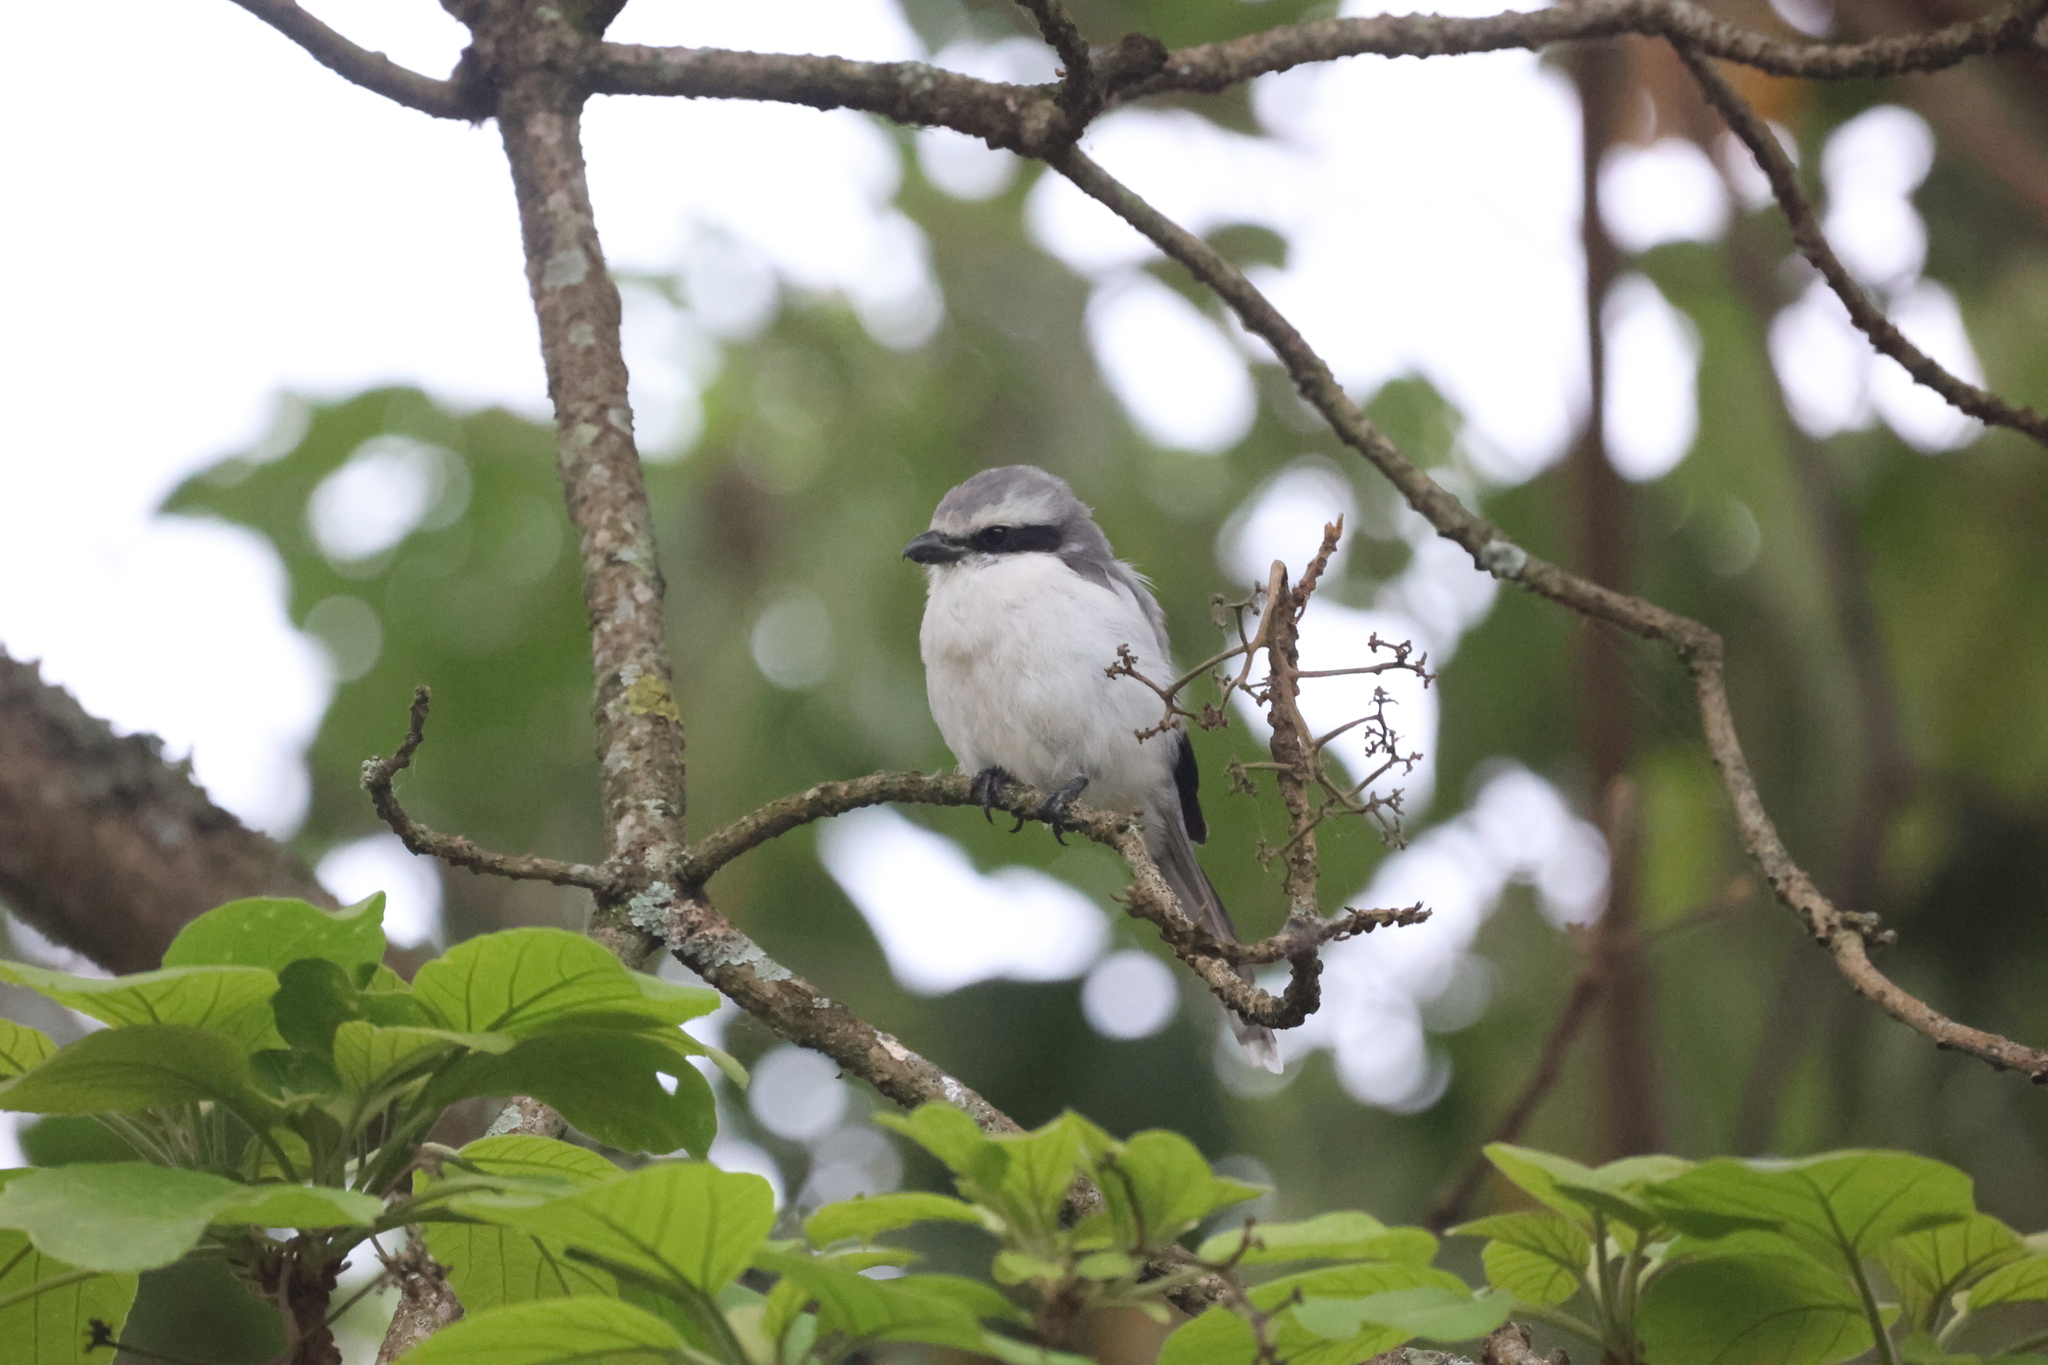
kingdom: Animalia
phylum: Chordata
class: Aves
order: Passeriformes
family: Laniidae
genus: Lanius
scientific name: Lanius mackinnoni
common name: Mackinnon's shrike
